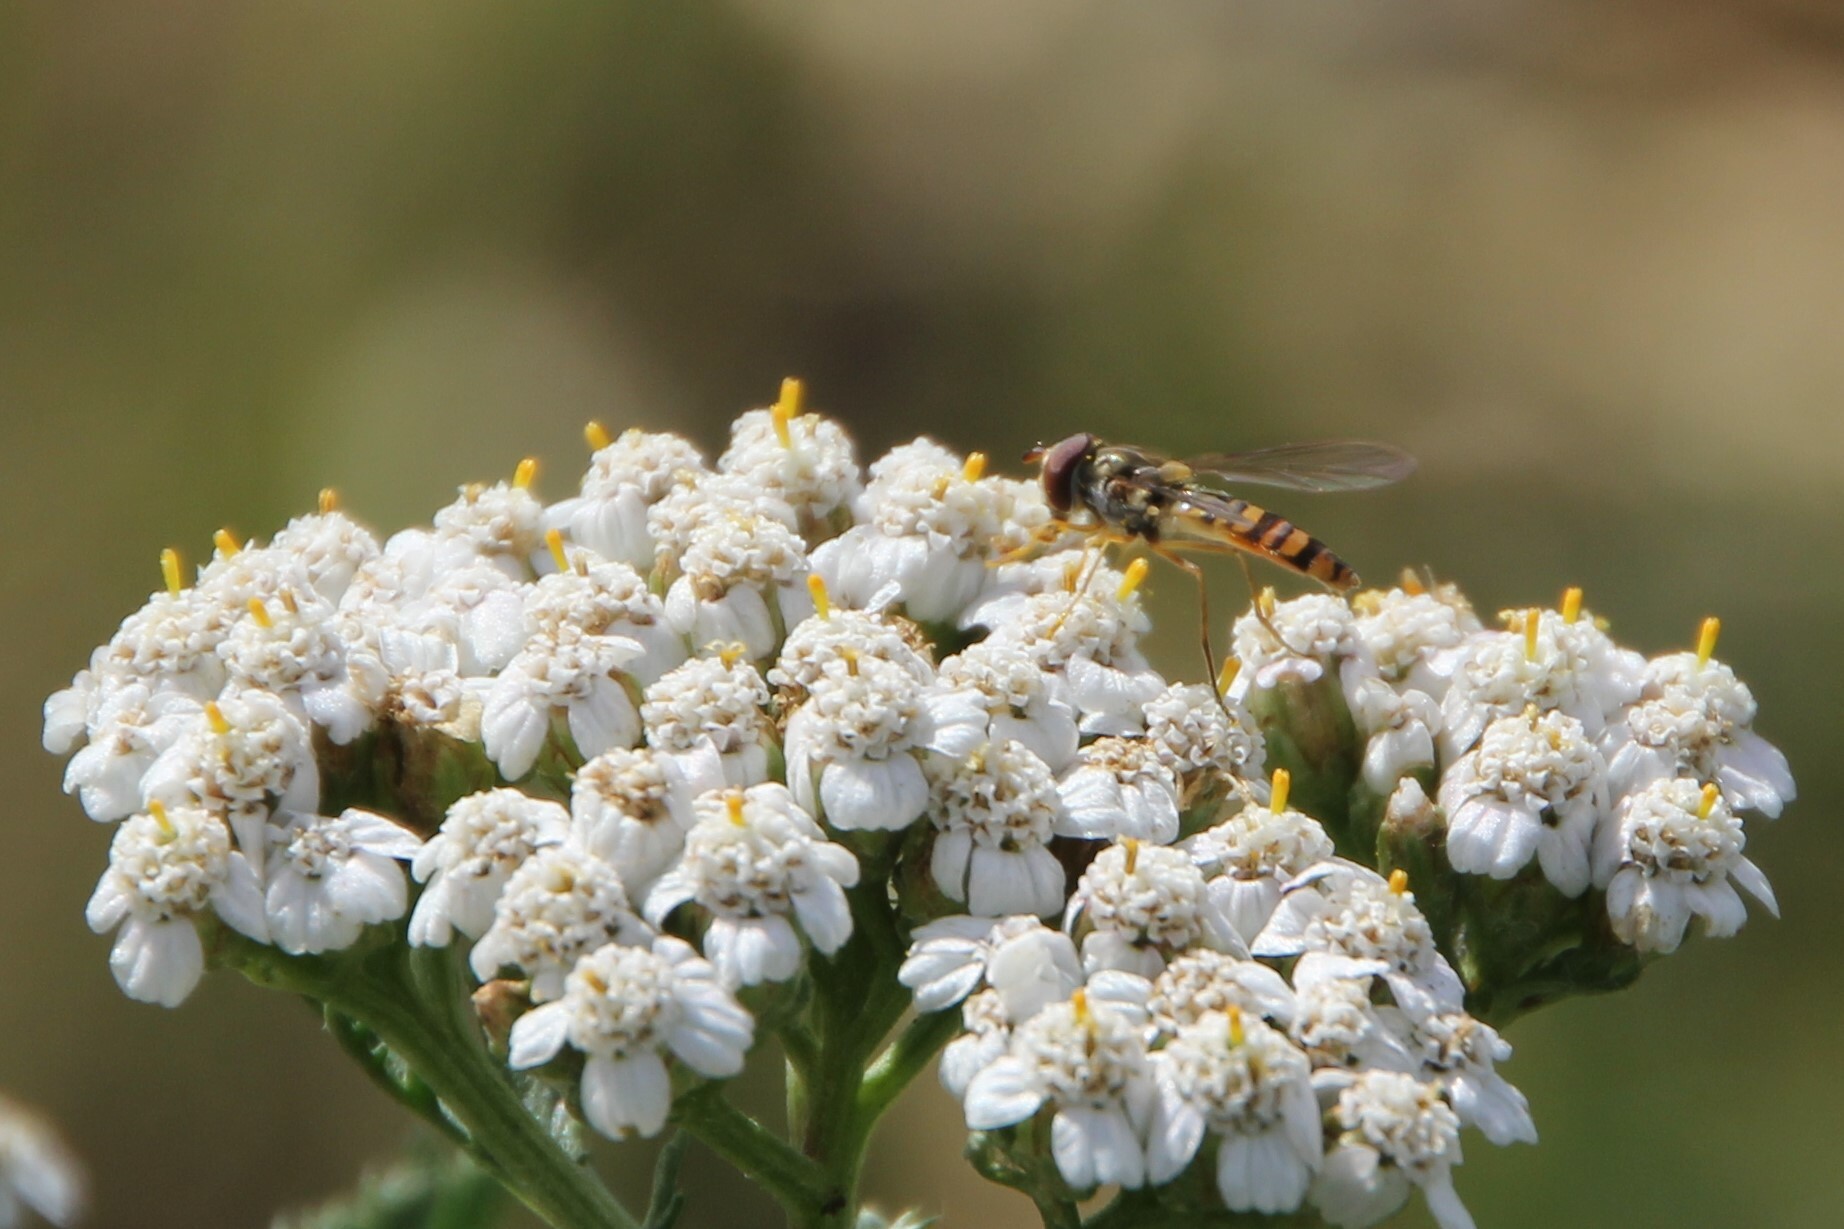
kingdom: Animalia
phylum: Arthropoda
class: Insecta
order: Diptera
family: Syrphidae
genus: Episyrphus
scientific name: Episyrphus balteatus
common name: Marmalade hoverfly
